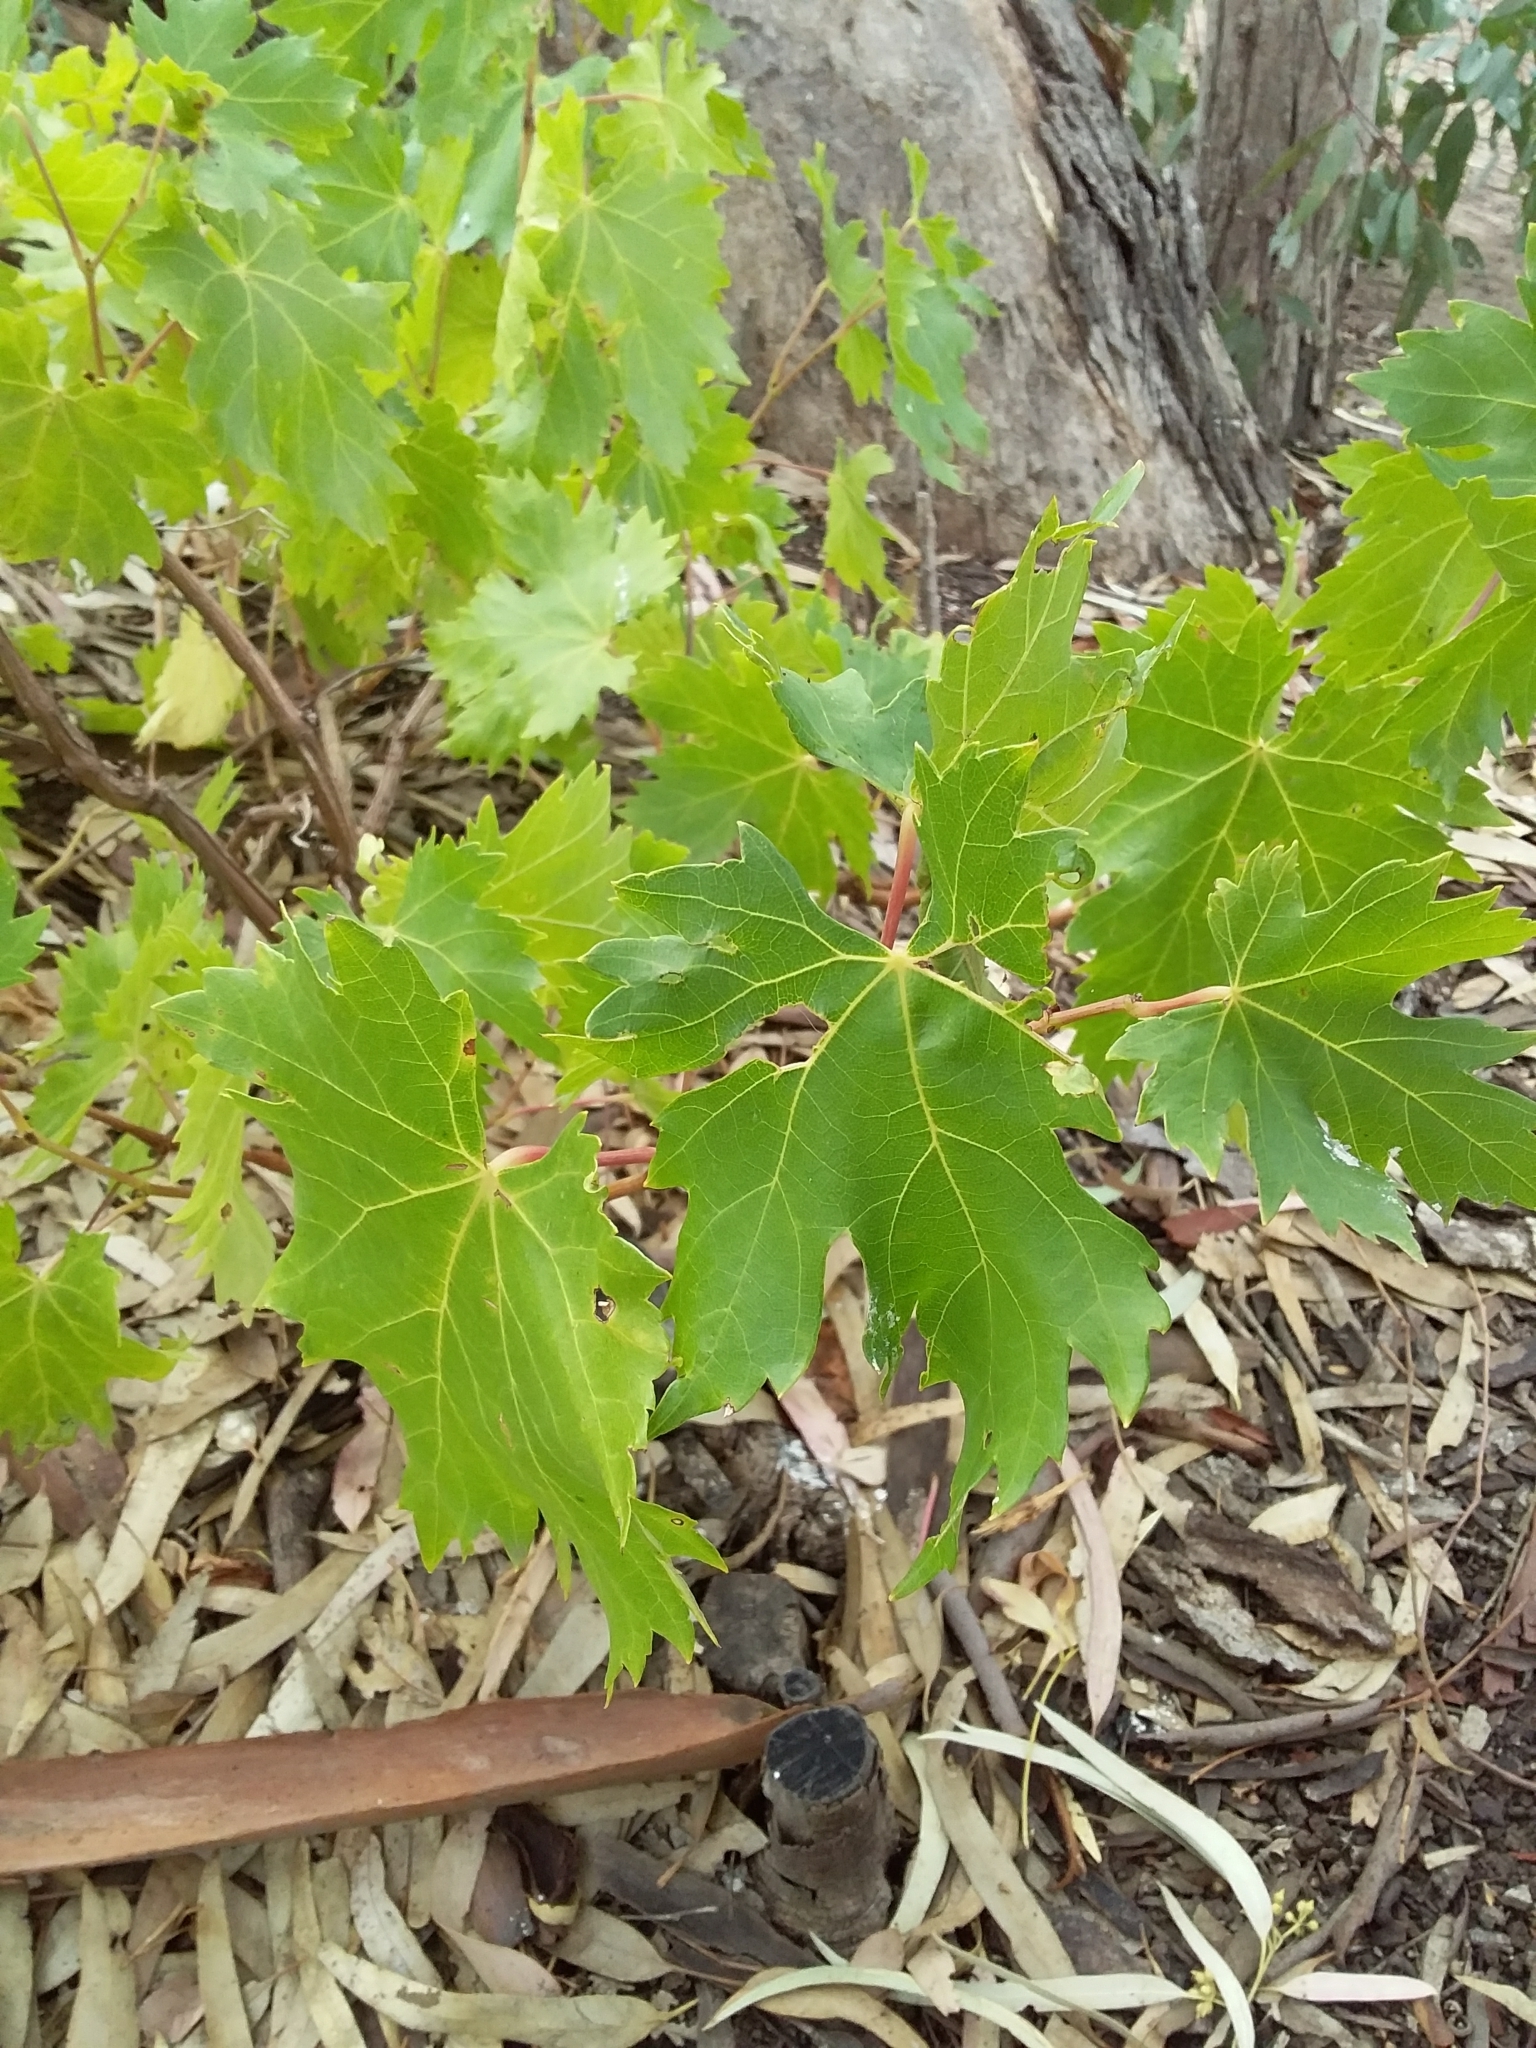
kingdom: Plantae
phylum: Tracheophyta
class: Magnoliopsida
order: Vitales
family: Vitaceae
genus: Vitis
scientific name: Vitis vinifera
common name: Grape-vine
